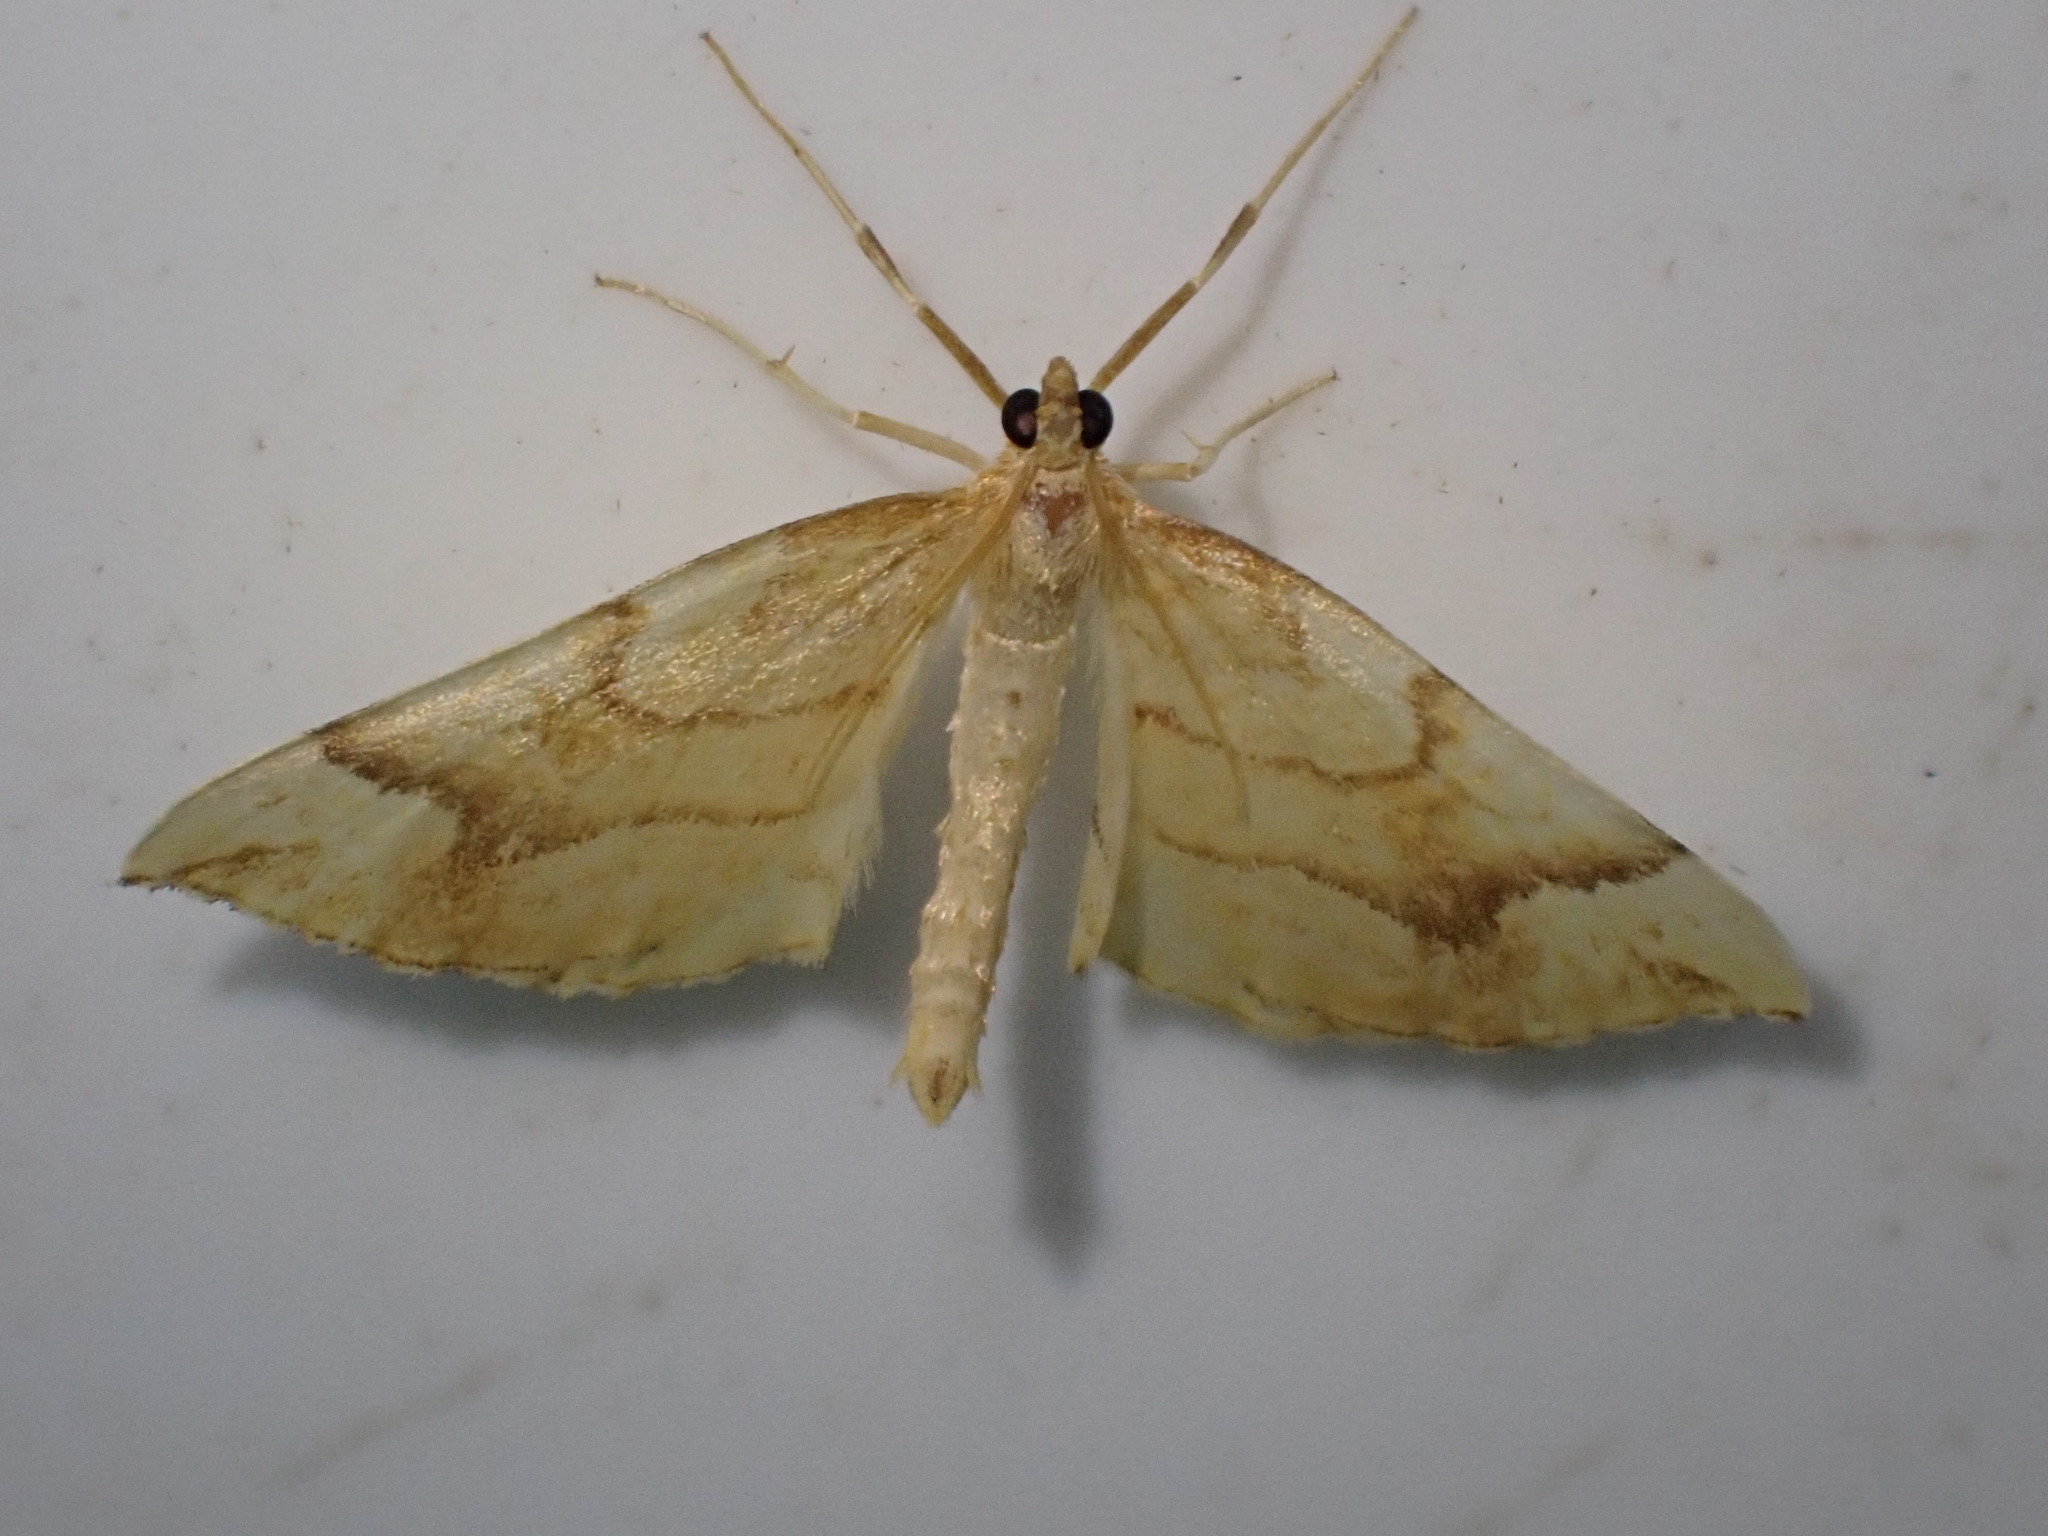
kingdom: Animalia
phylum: Arthropoda
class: Insecta
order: Lepidoptera
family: Geometridae
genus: Eulithis
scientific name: Eulithis mellinata
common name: Spinach
